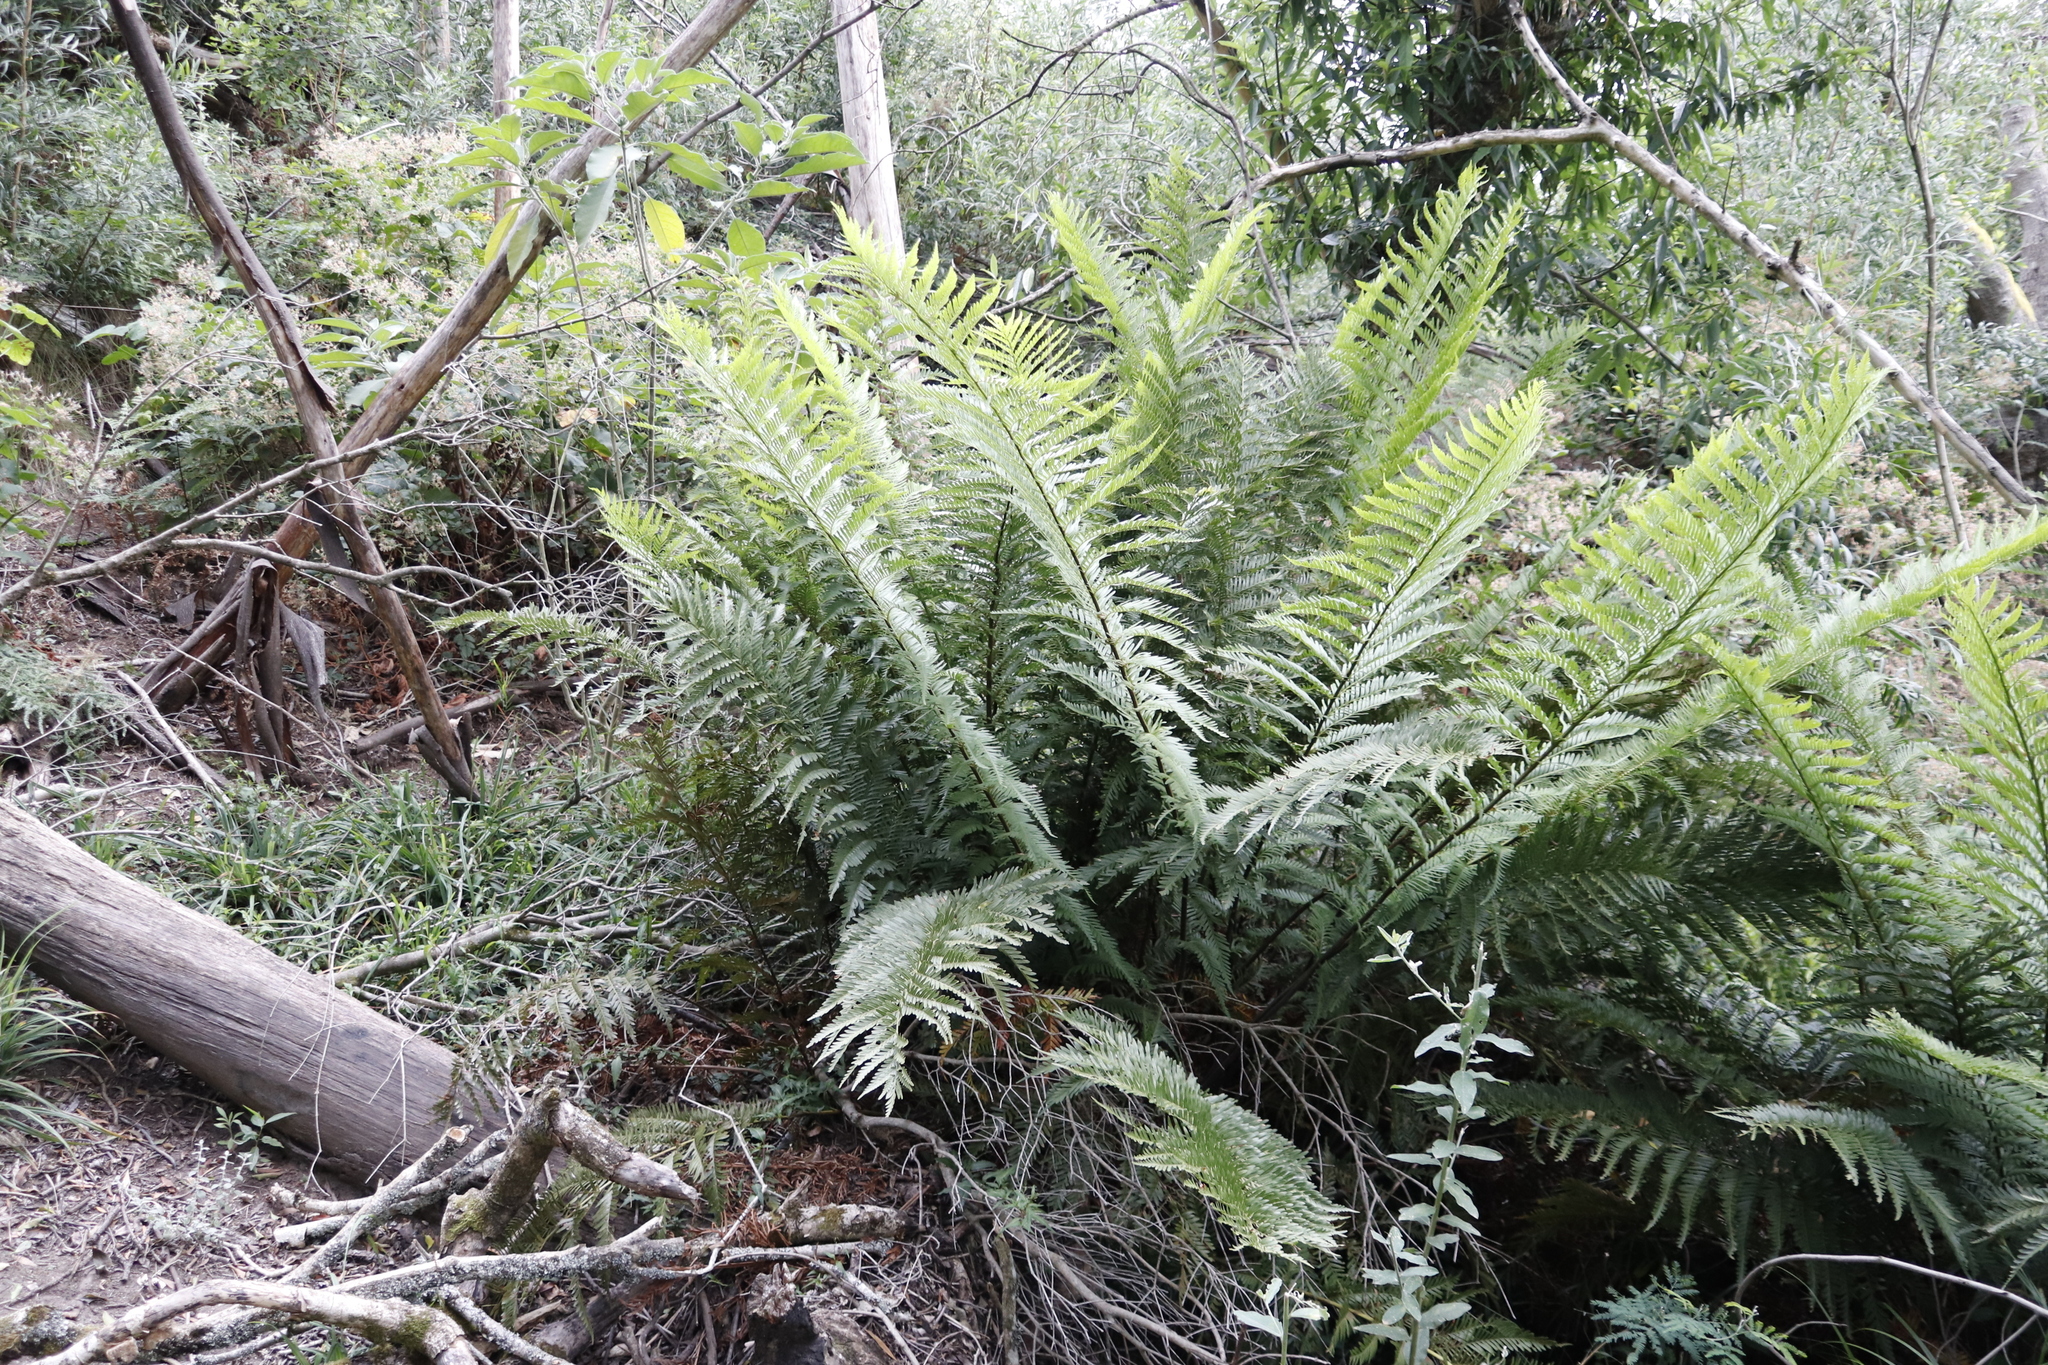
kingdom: Plantae
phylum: Tracheophyta
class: Polypodiopsida
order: Osmundales
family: Osmundaceae
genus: Todea
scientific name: Todea barbara
